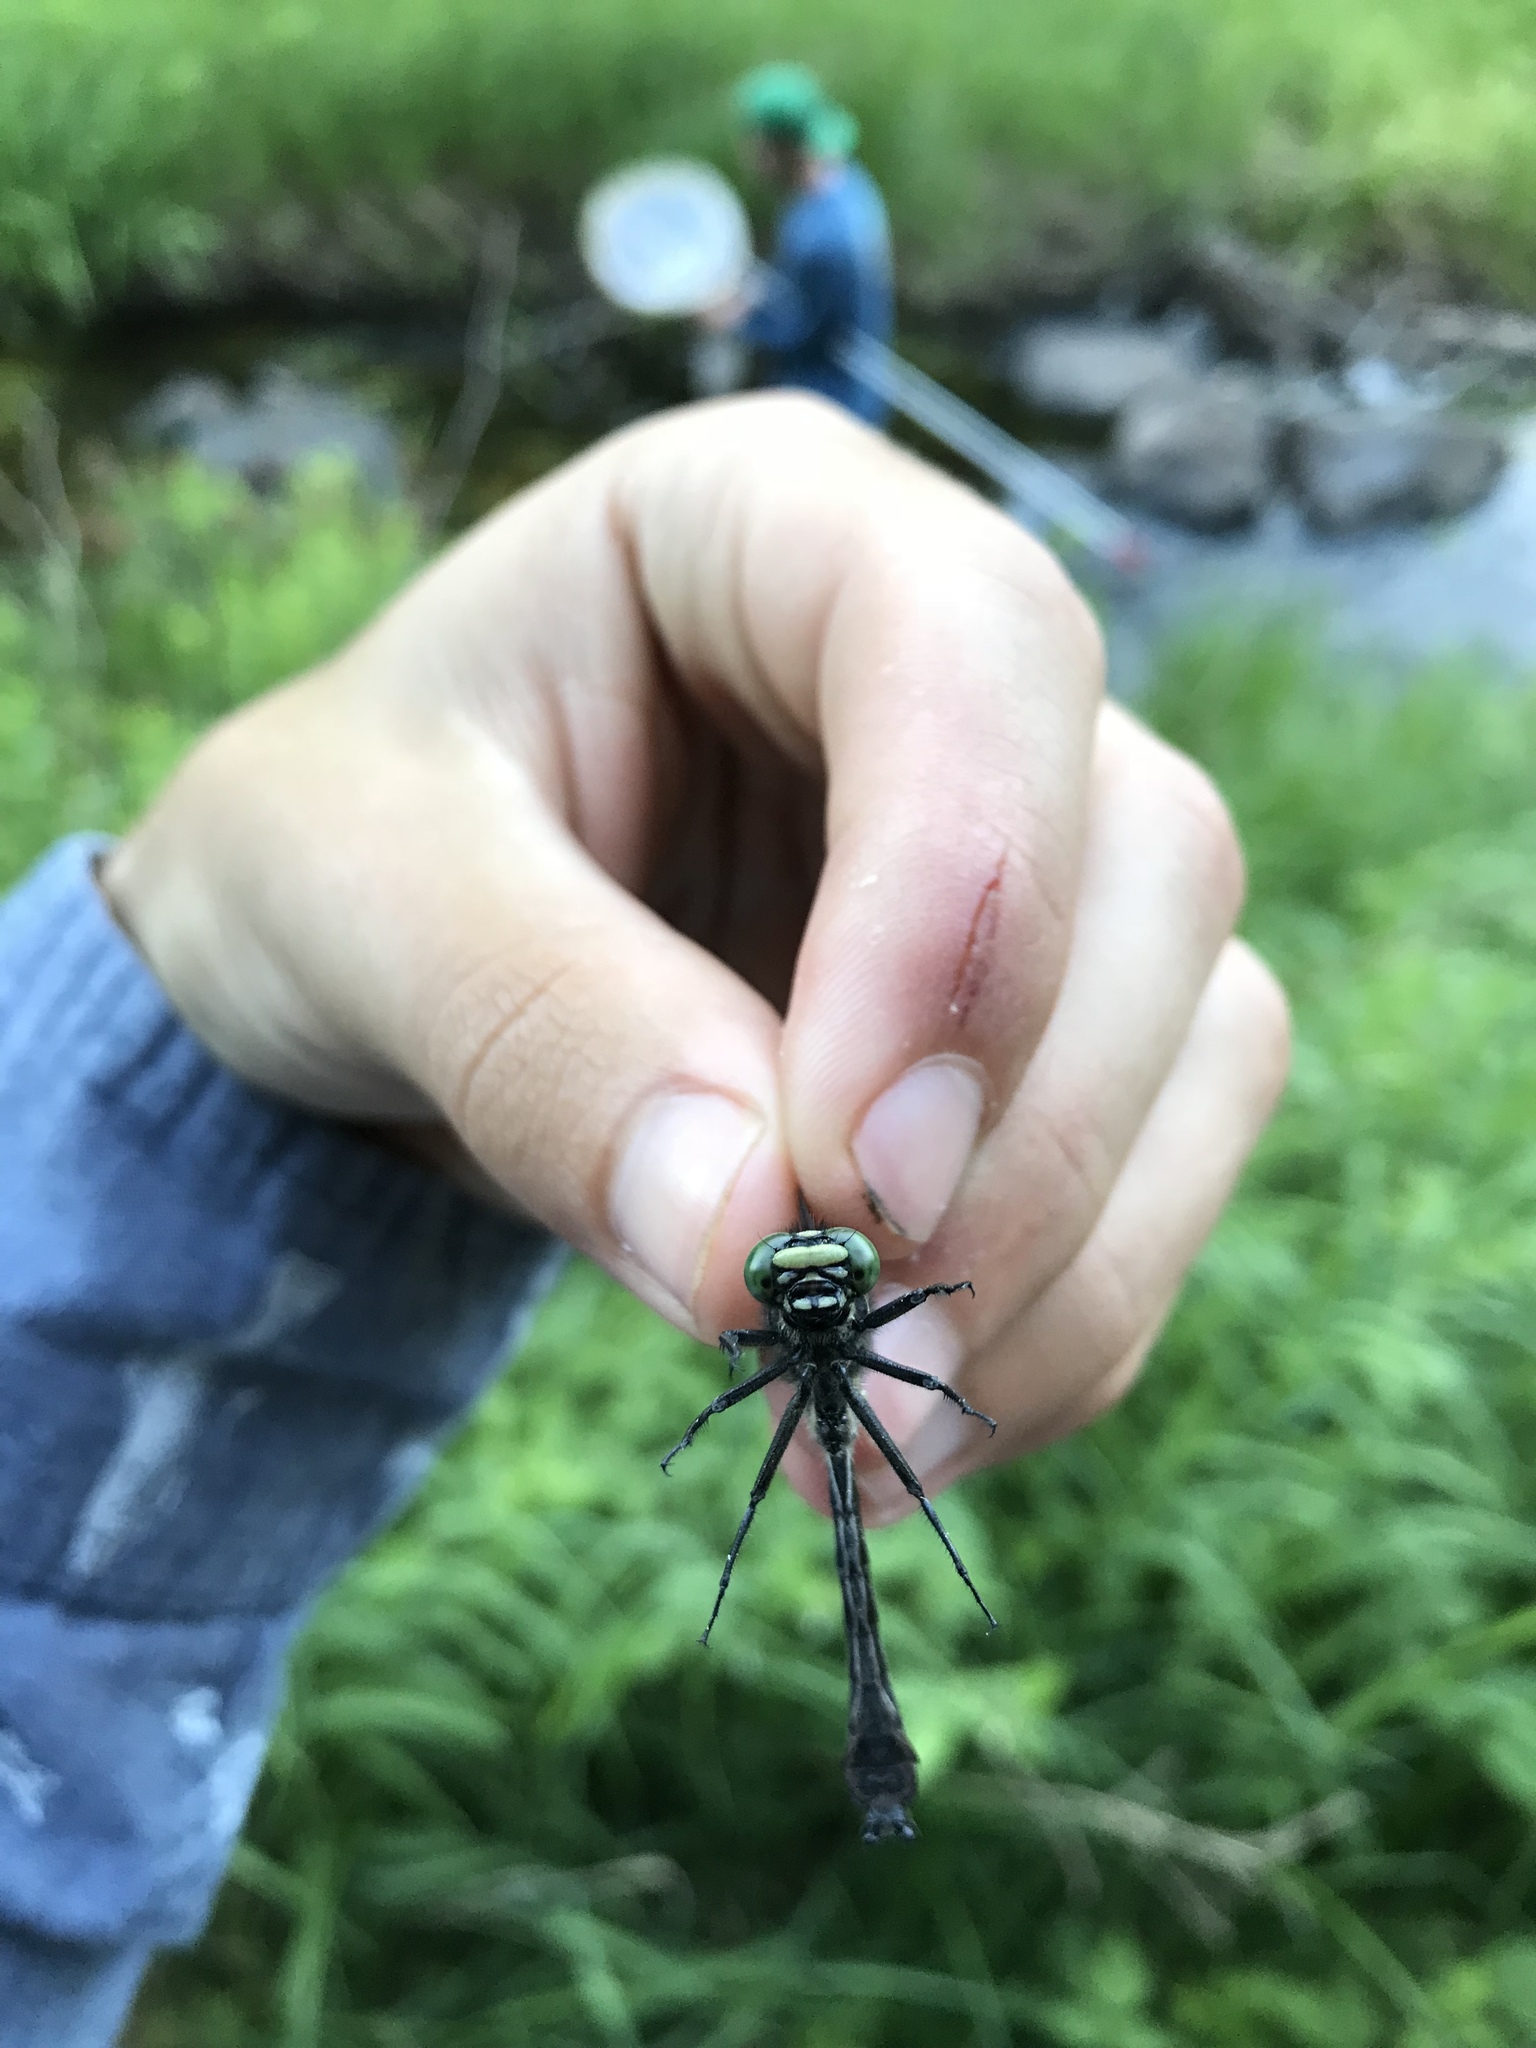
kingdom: Animalia
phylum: Arthropoda
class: Insecta
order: Odonata
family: Gomphidae
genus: Hylogomphus
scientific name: Hylogomphus adelphus
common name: Mustached clubtail
